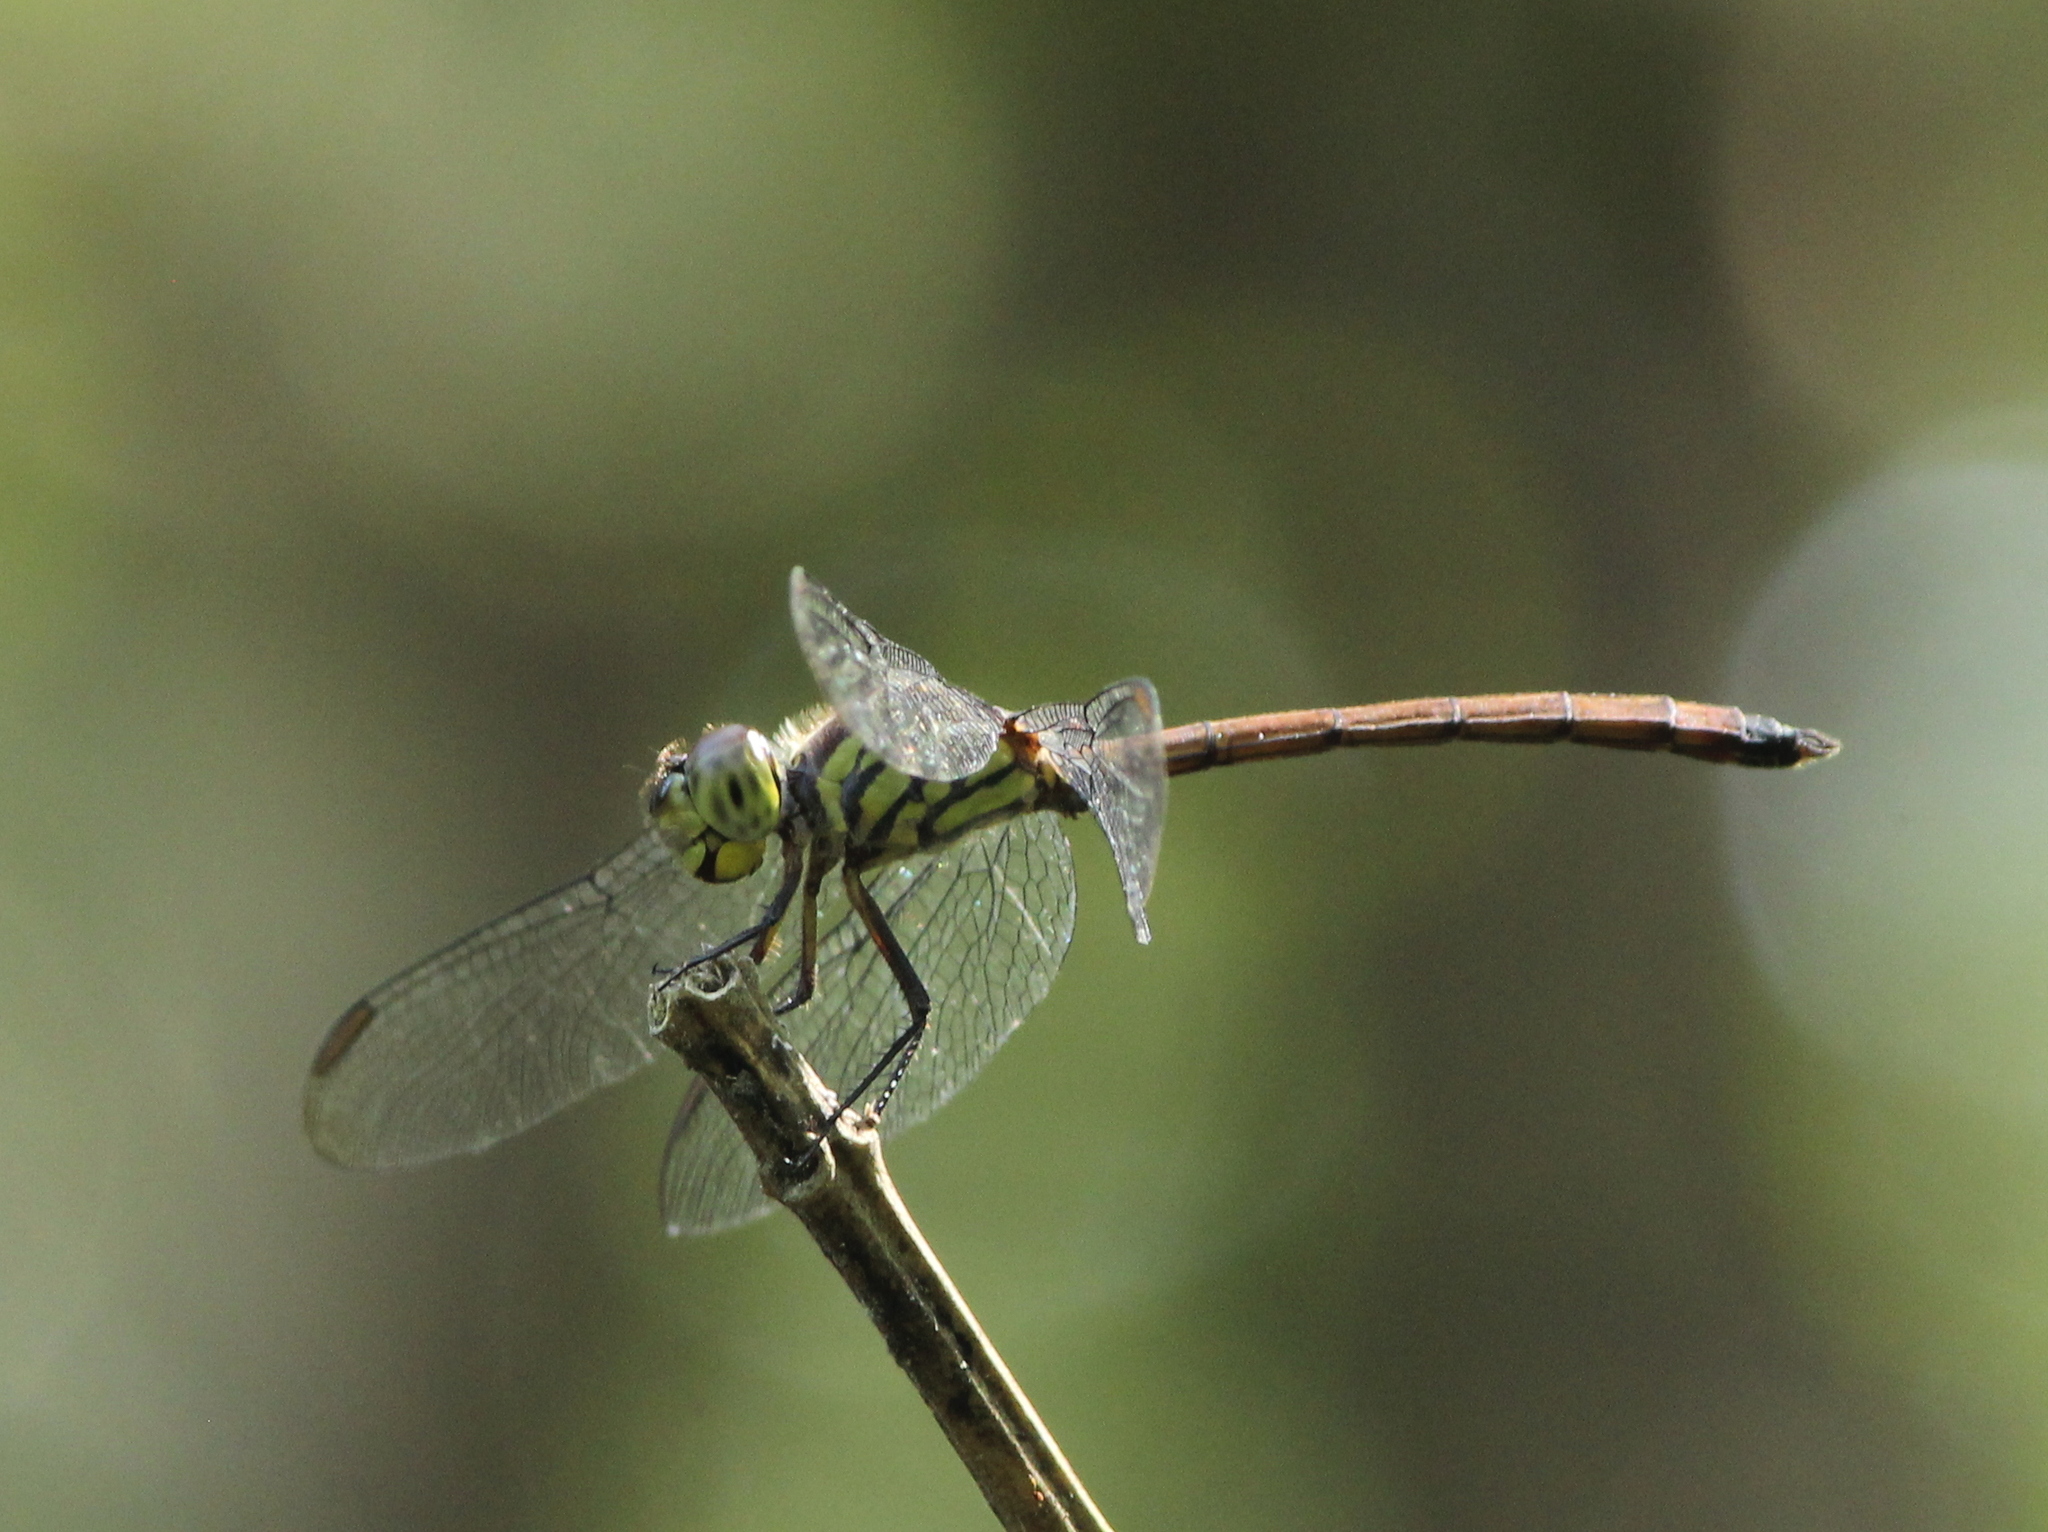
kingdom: Animalia
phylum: Arthropoda
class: Insecta
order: Odonata
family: Libellulidae
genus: Lathrecista
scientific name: Lathrecista asiatica
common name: Scarlet grenadier
